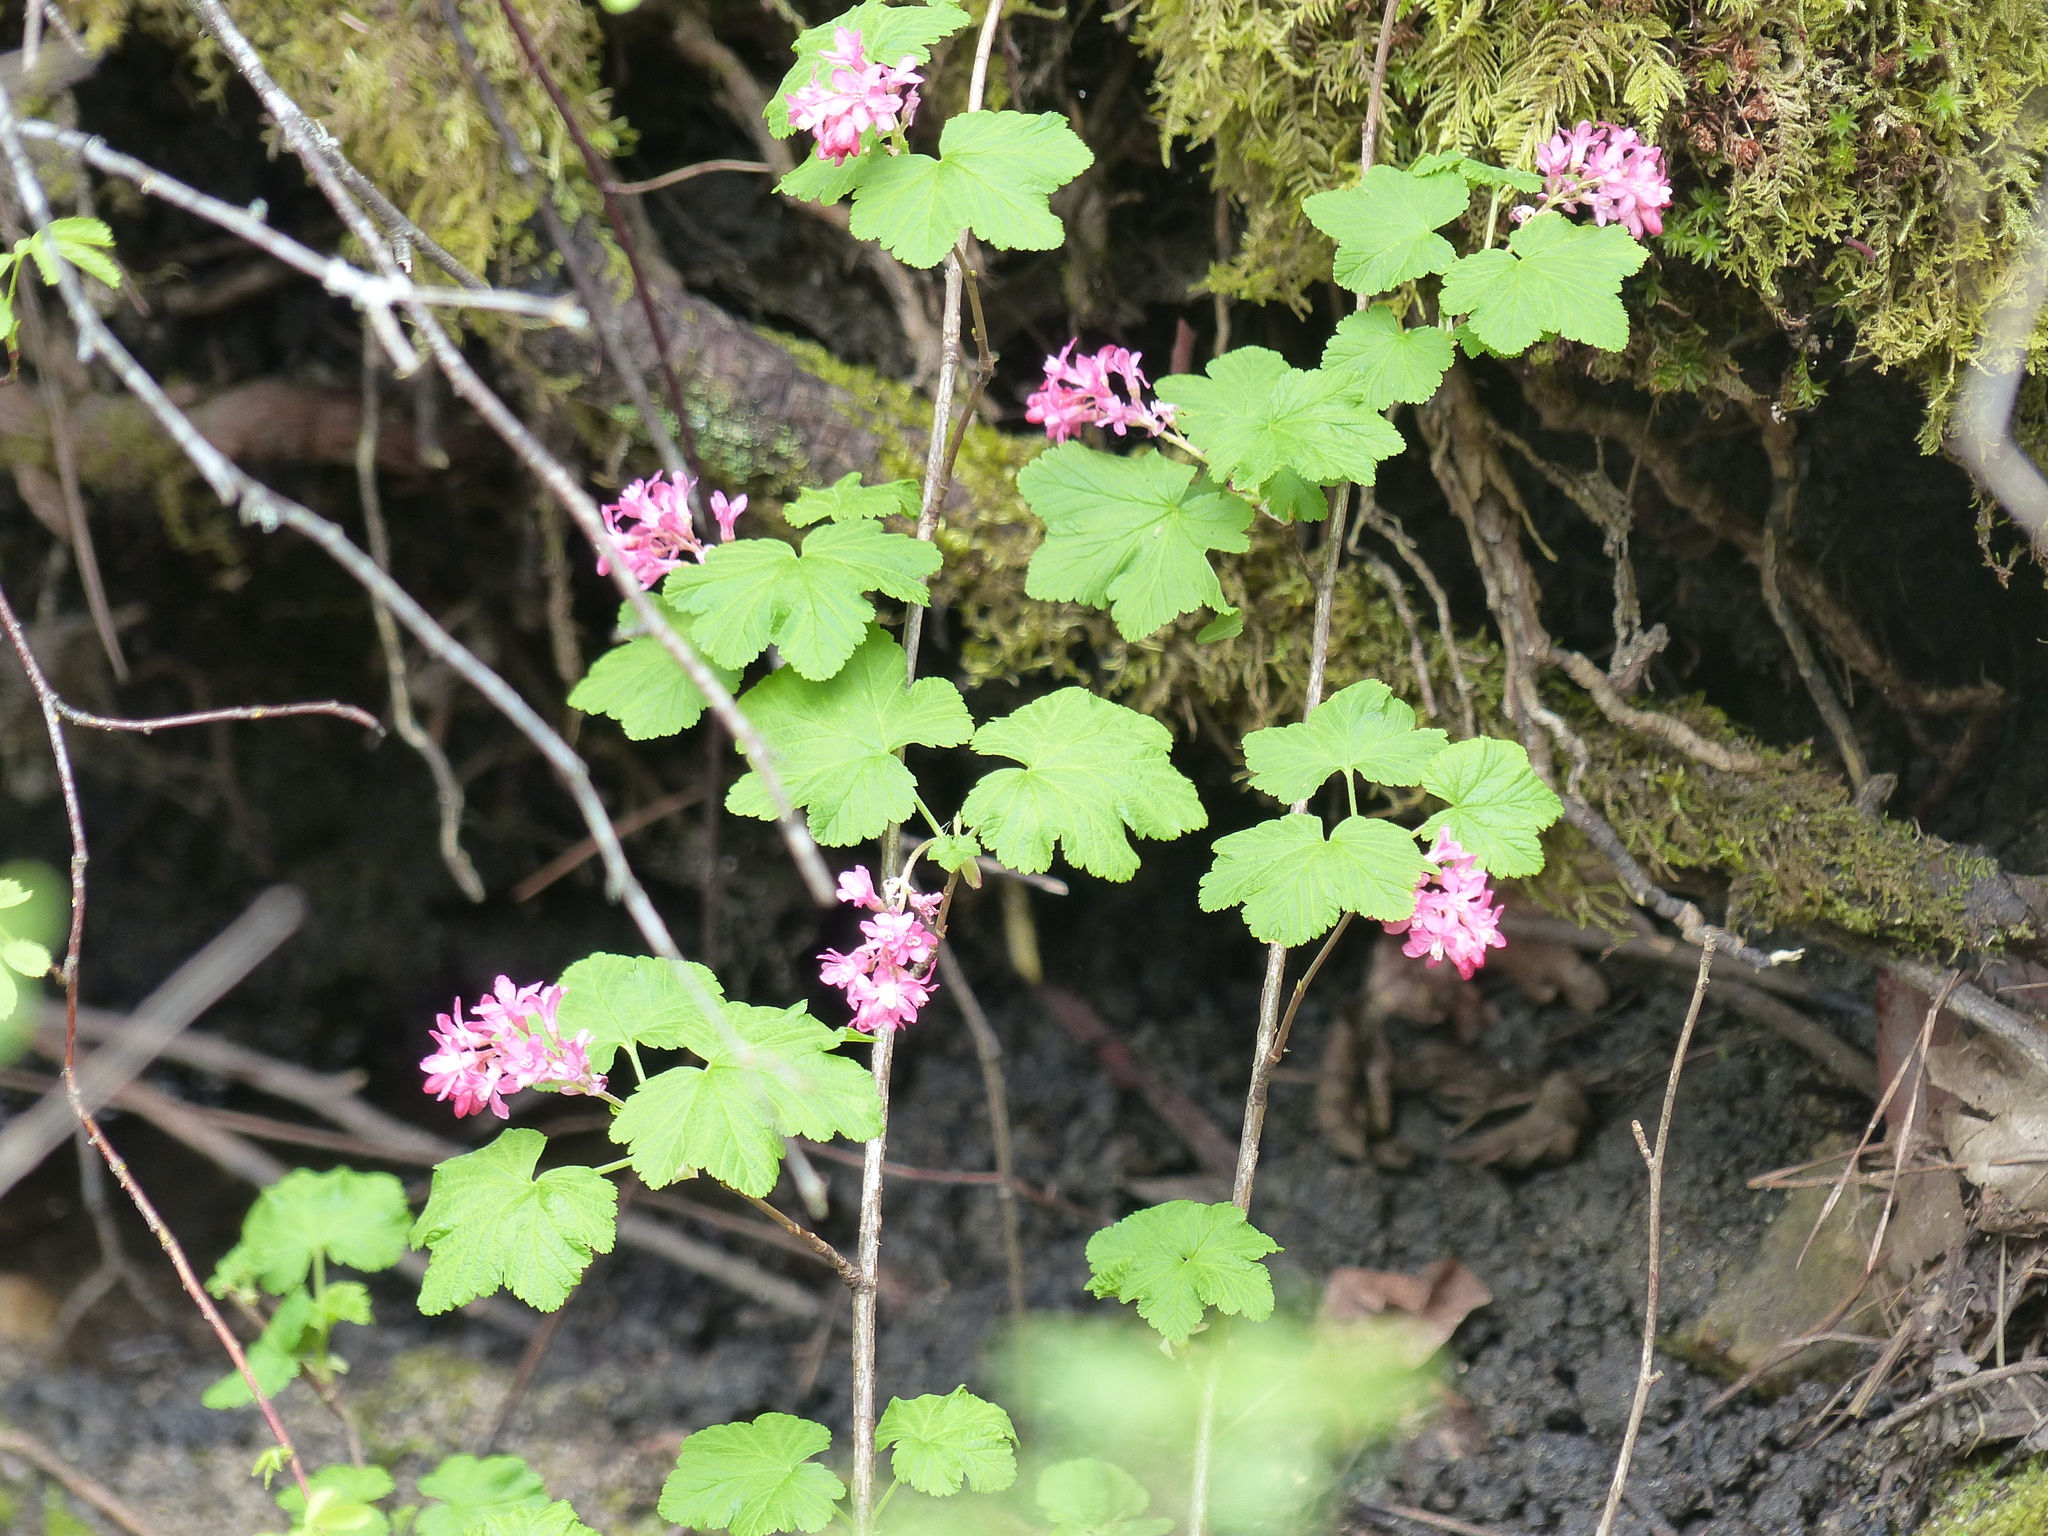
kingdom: Plantae
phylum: Tracheophyta
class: Magnoliopsida
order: Saxifragales
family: Grossulariaceae
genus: Ribes
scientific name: Ribes sanguineum
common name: Flowering currant
